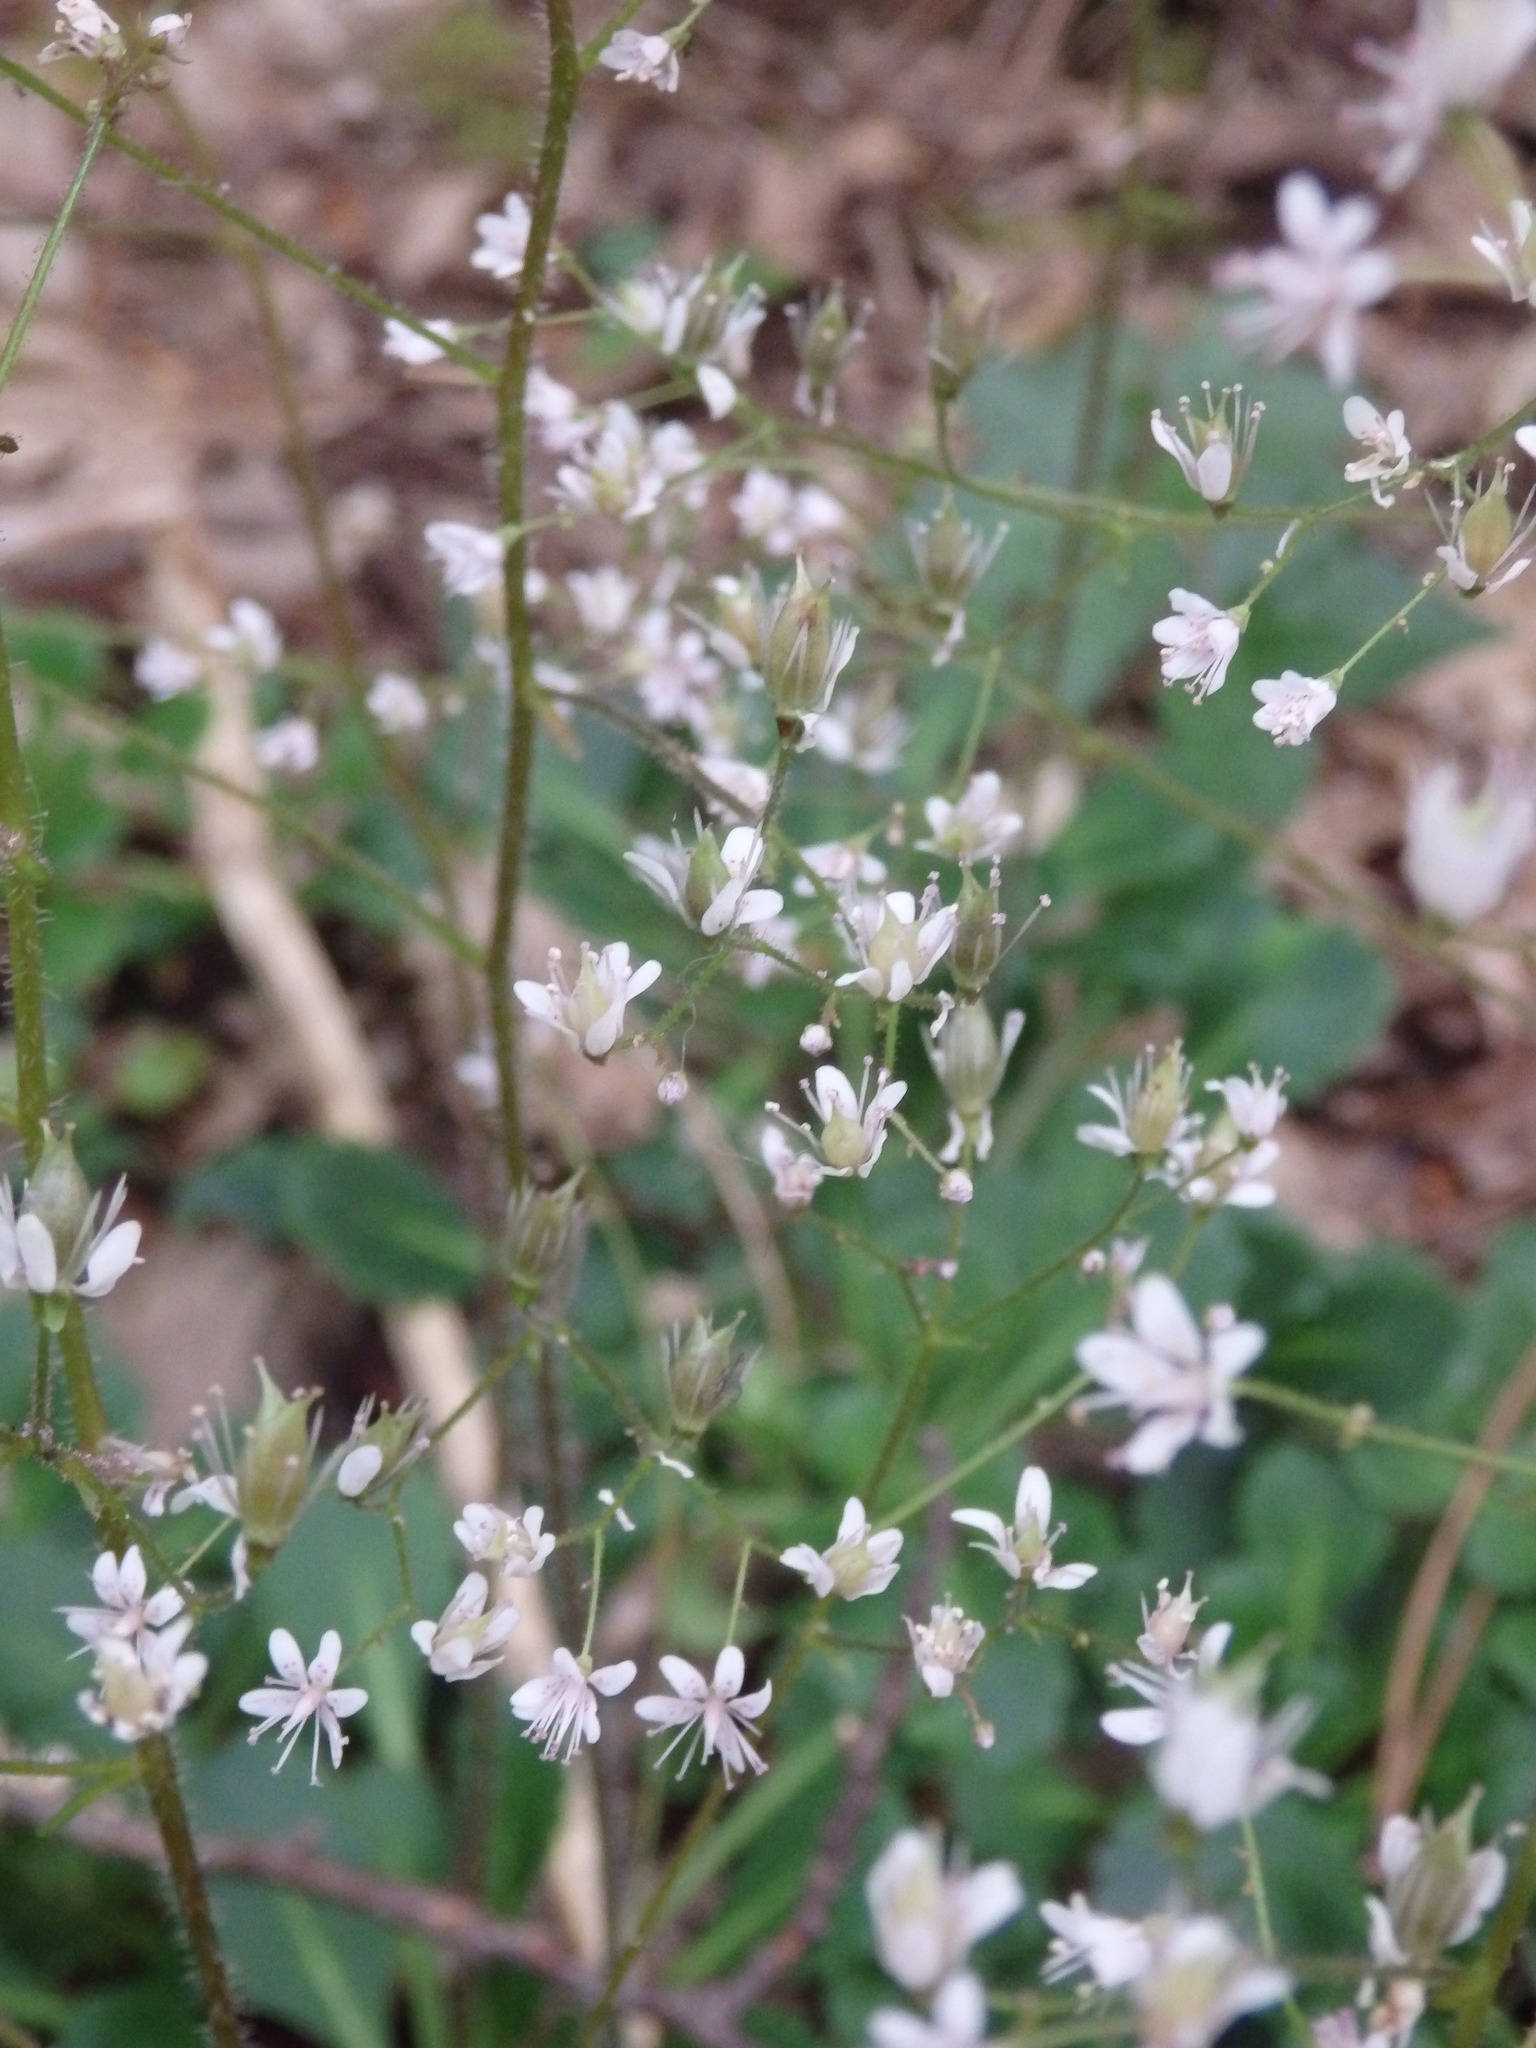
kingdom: Plantae
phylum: Tracheophyta
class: Magnoliopsida
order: Saxifragales
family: Saxifragaceae
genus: Saxifraga
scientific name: Saxifraga spathularis
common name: St patrick's-cabbage
